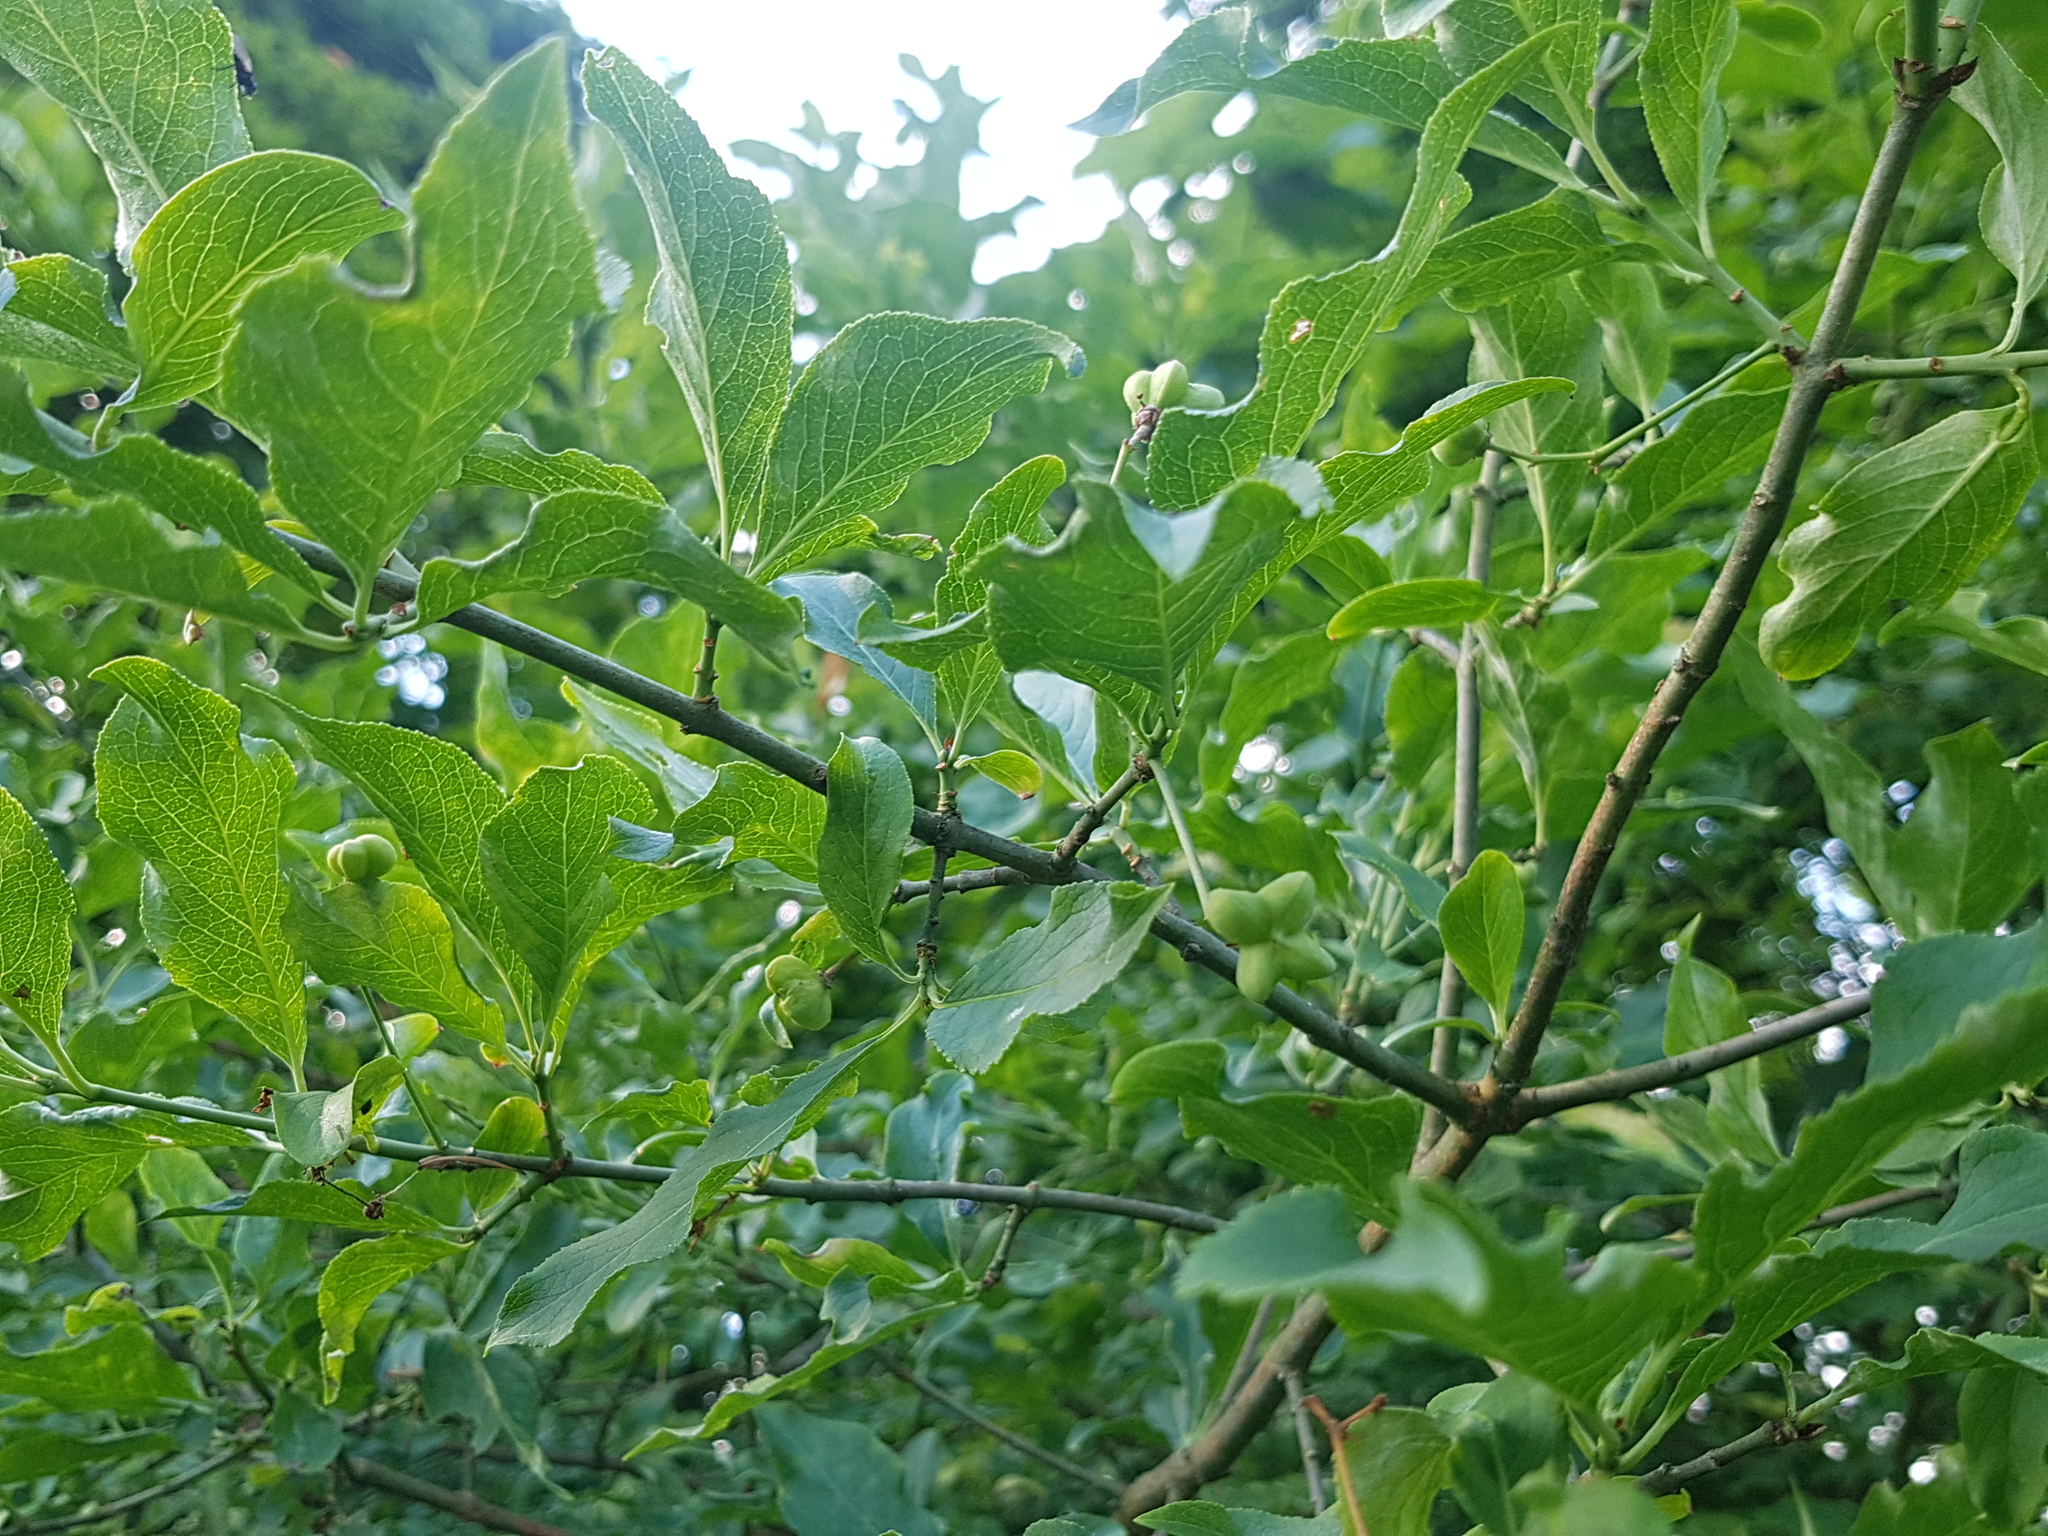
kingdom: Plantae
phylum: Tracheophyta
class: Magnoliopsida
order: Celastrales
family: Celastraceae
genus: Euonymus
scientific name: Euonymus europaeus
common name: Spindle
